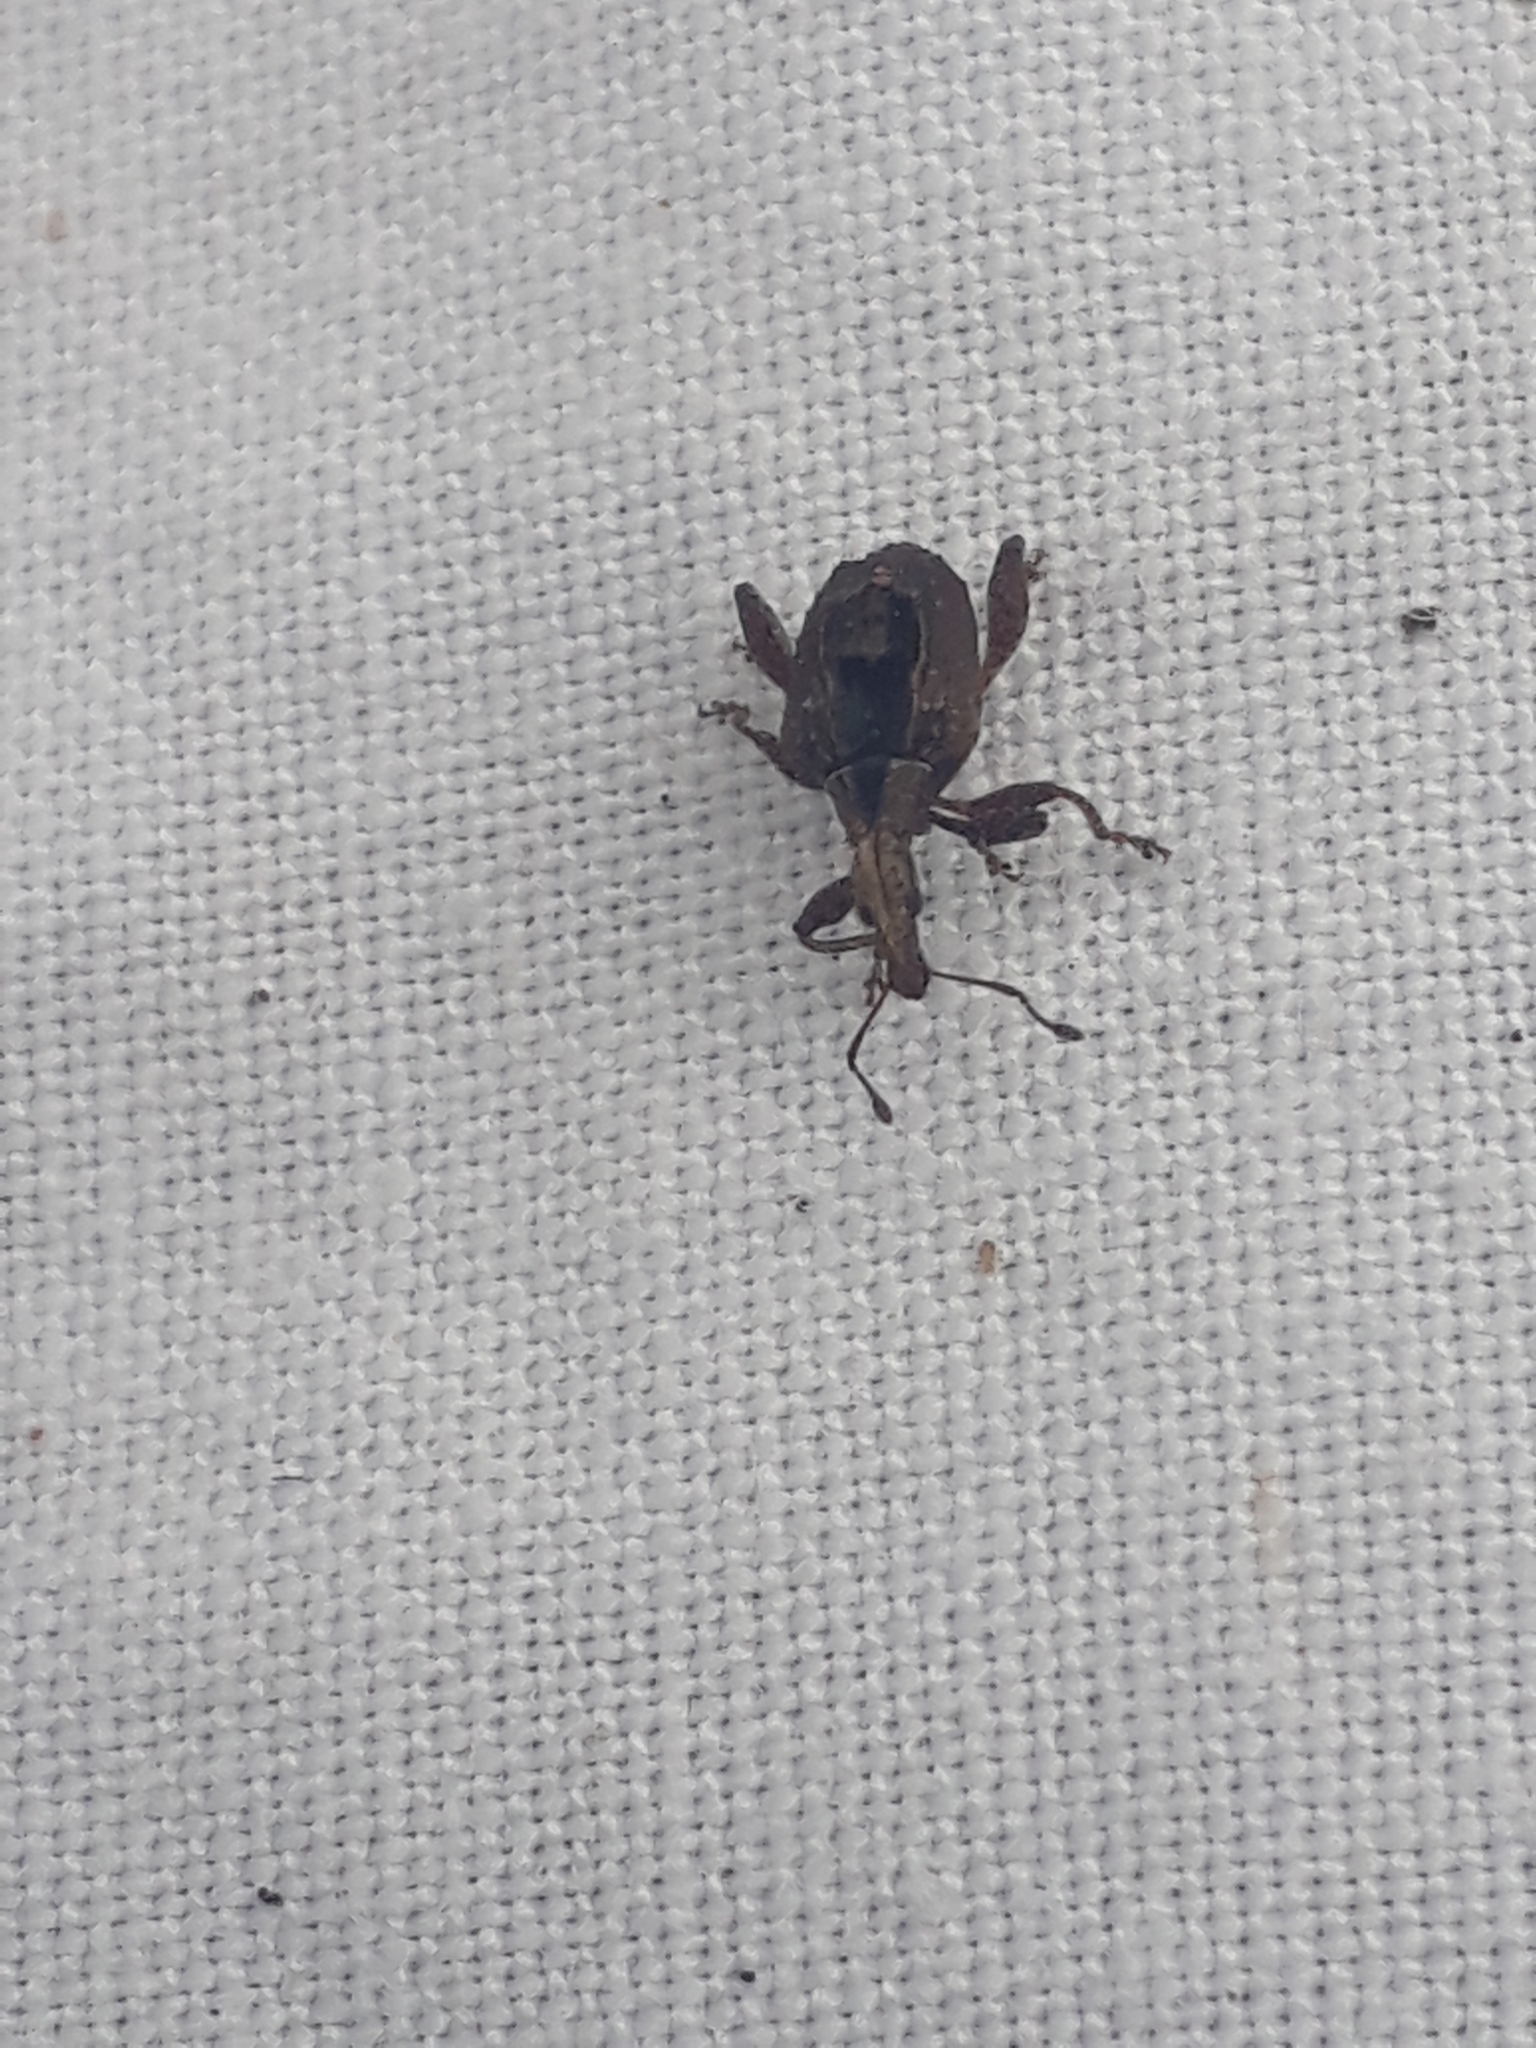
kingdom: Animalia
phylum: Arthropoda
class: Insecta
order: Coleoptera
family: Curculionidae
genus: Stephanorrhynchus
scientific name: Stephanorrhynchus crassus
